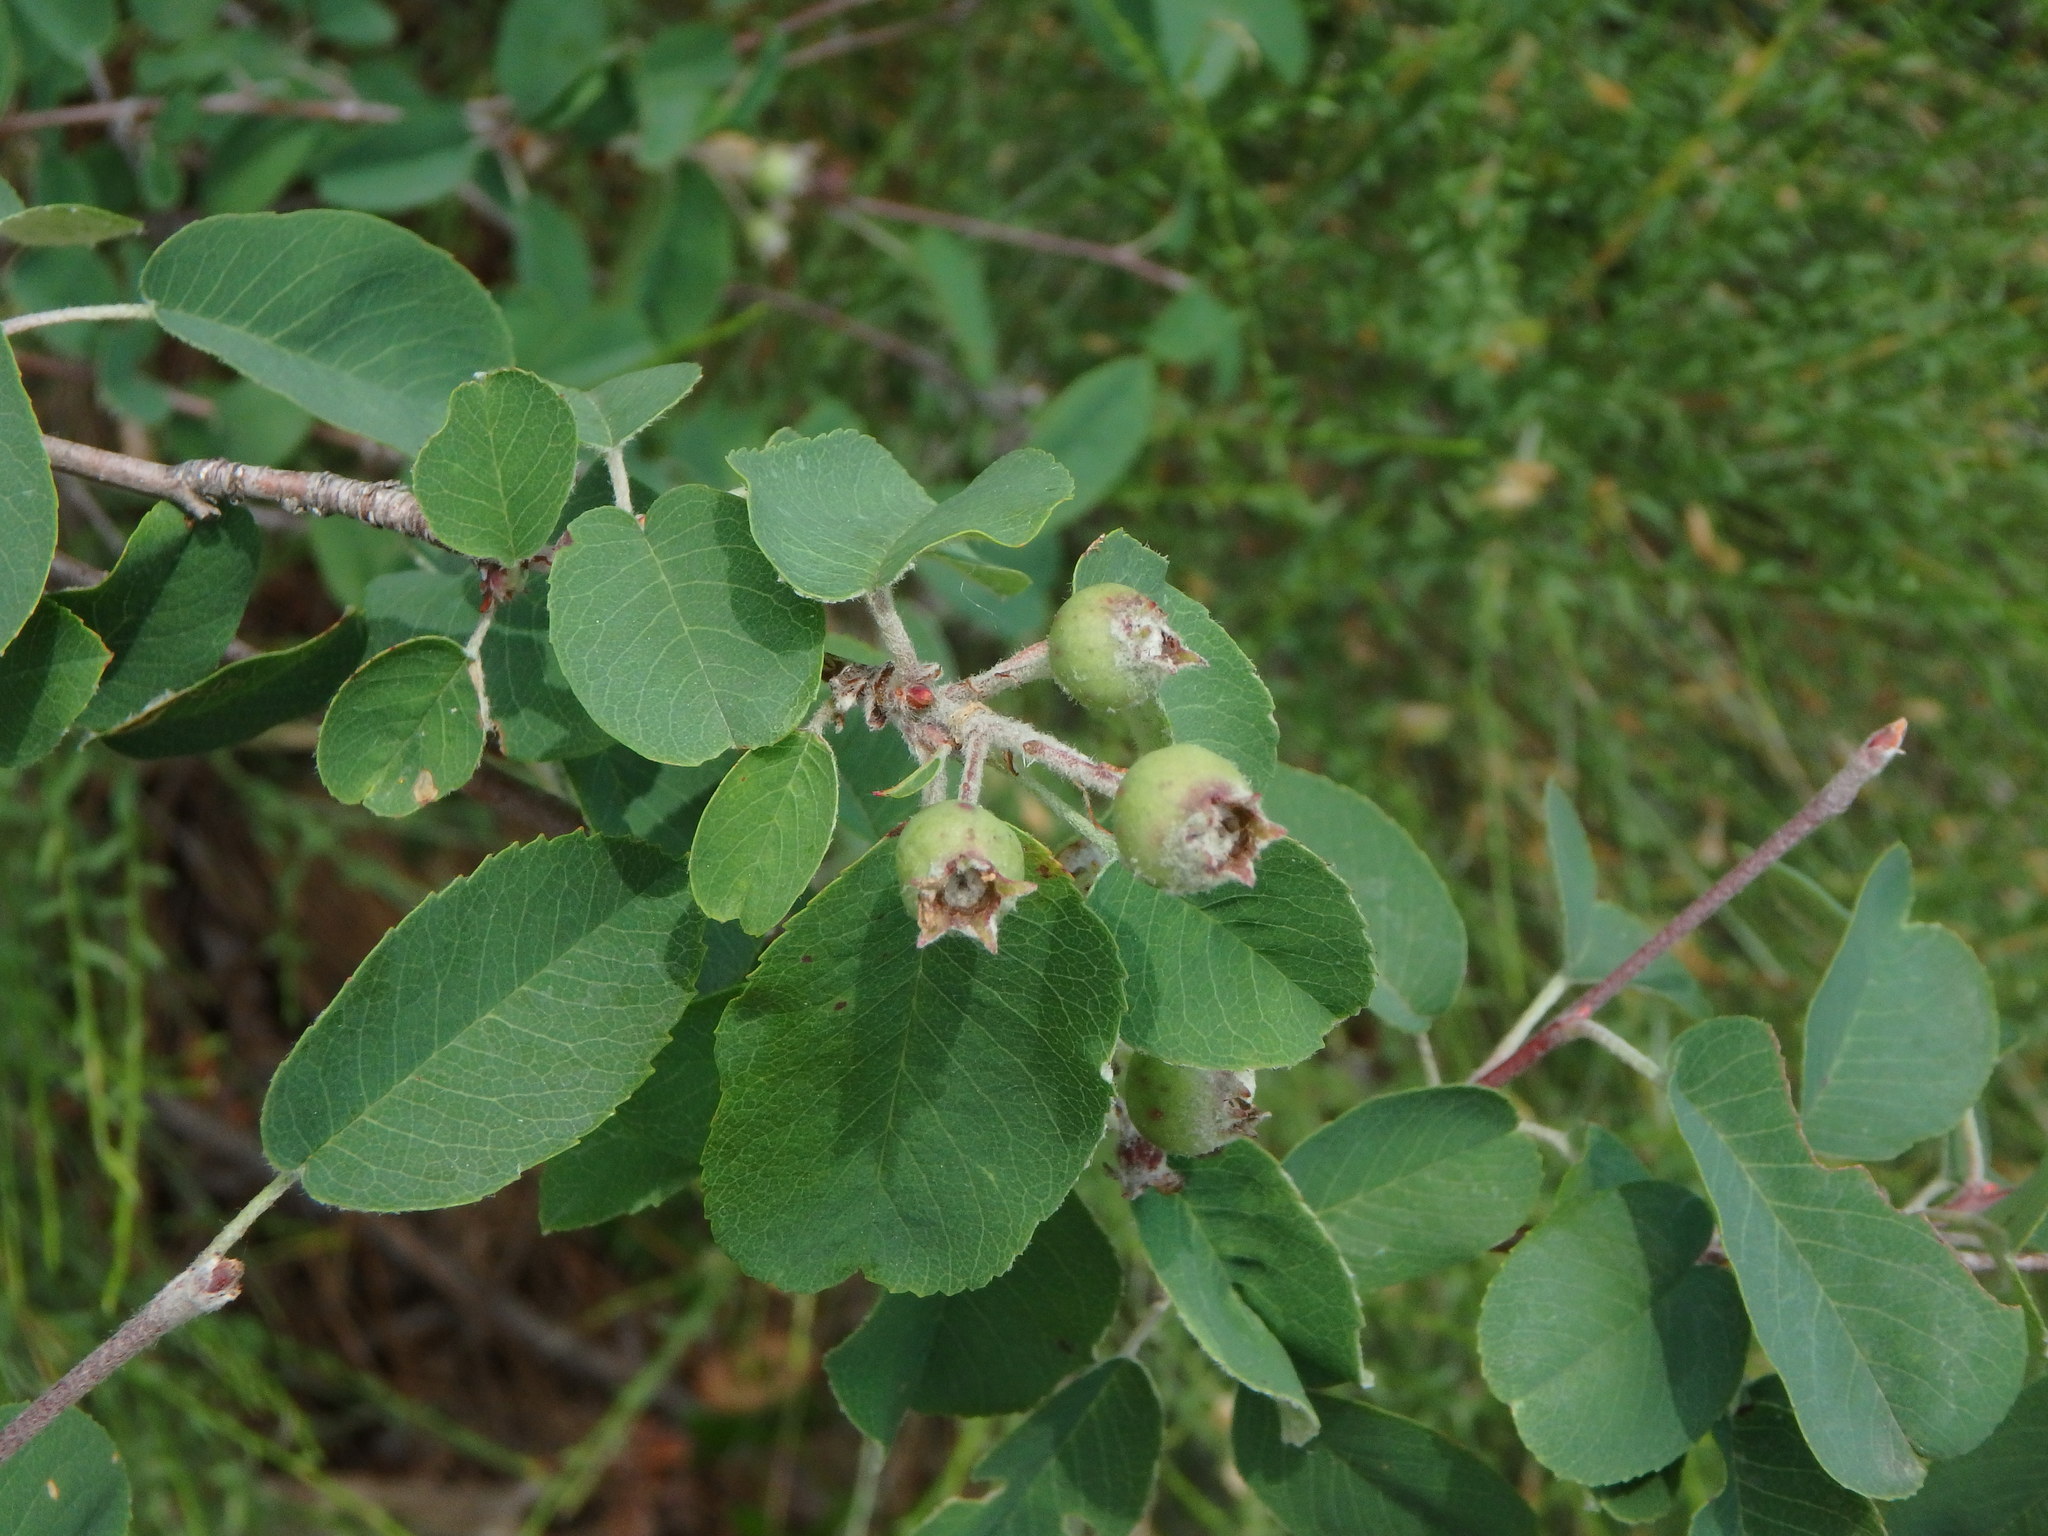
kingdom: Plantae
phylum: Tracheophyta
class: Magnoliopsida
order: Rosales
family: Rosaceae
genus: Amelanchier
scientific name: Amelanchier ovalis
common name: Serviceberry
